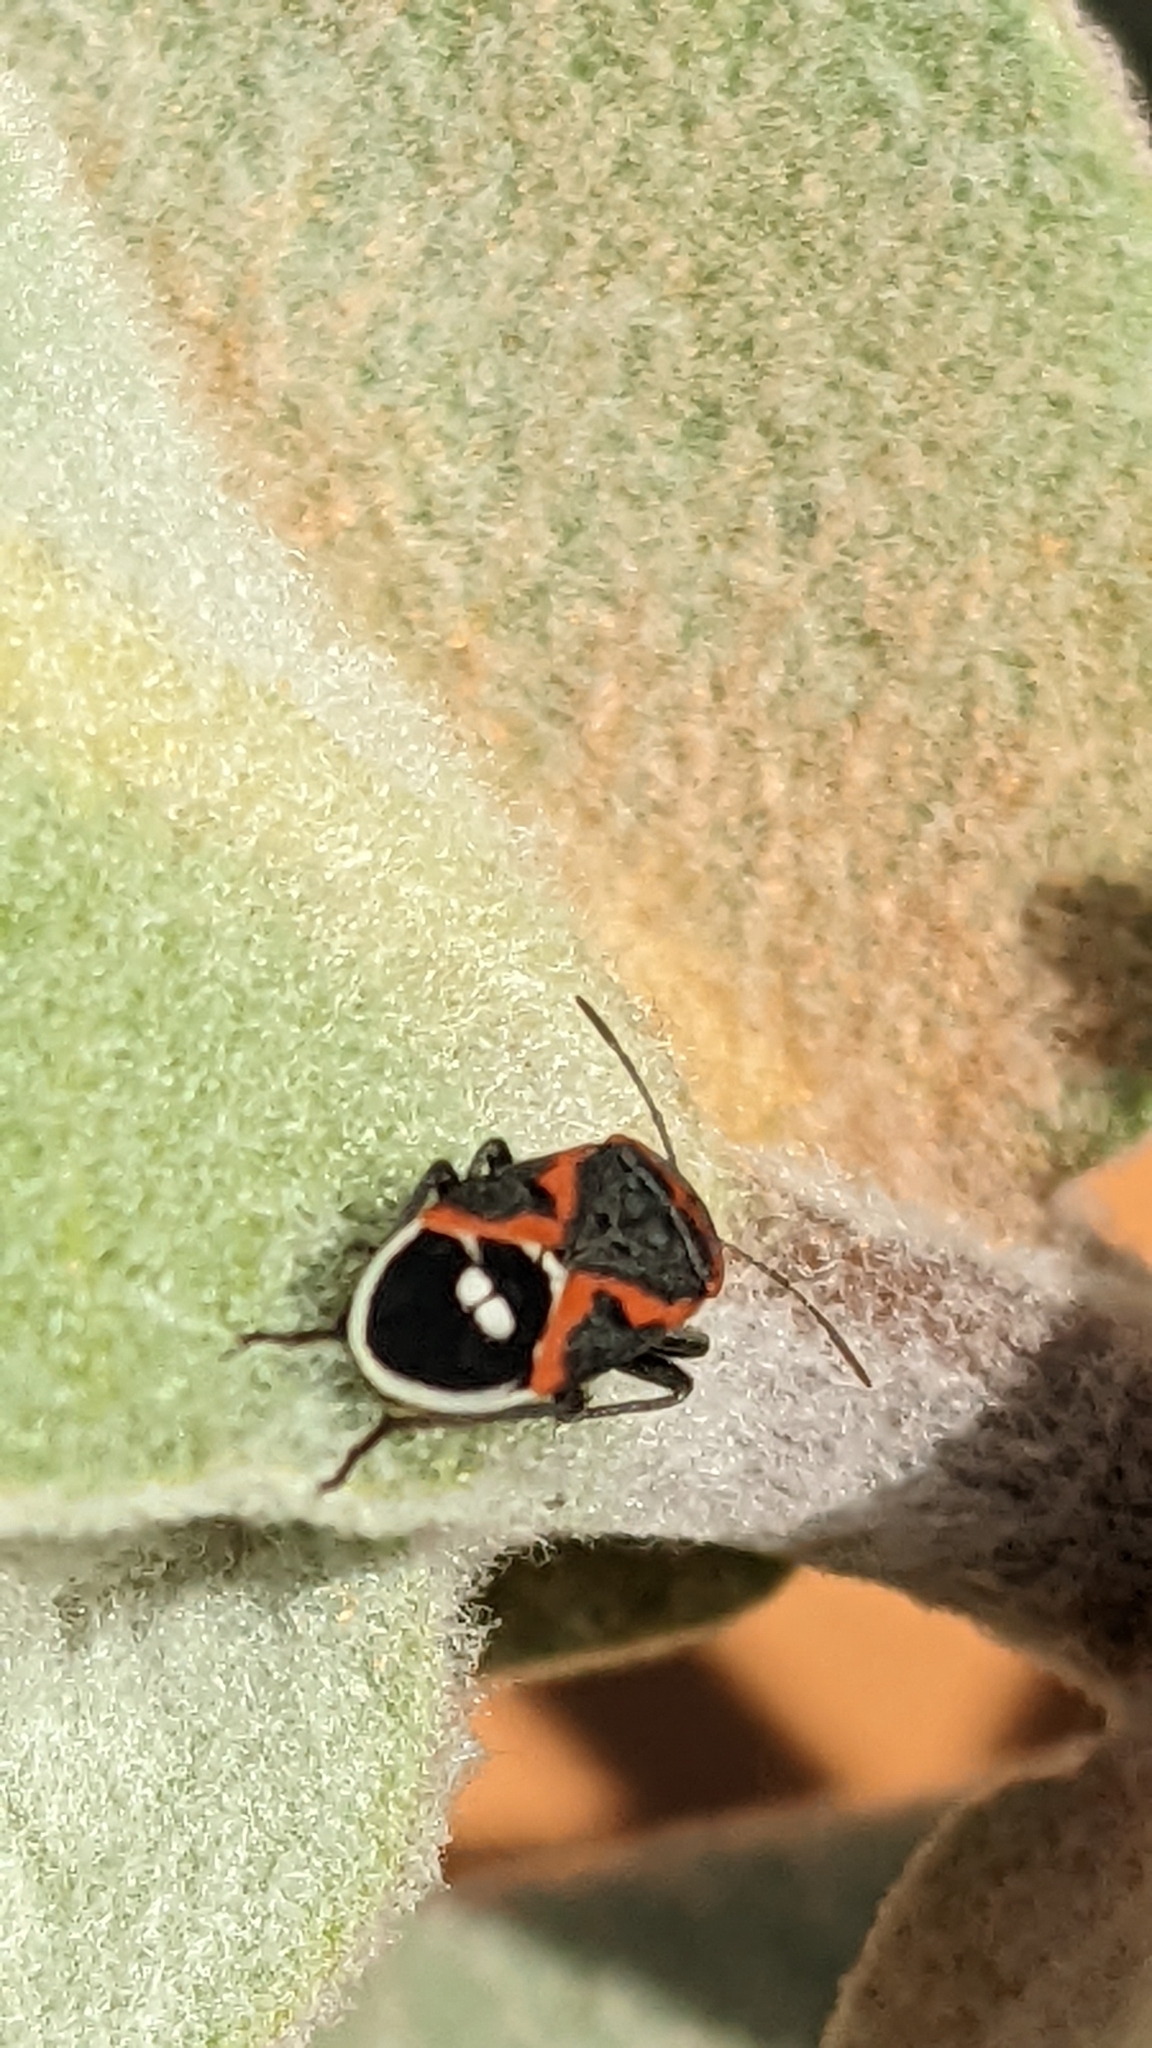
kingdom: Animalia
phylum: Arthropoda
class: Insecta
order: Hemiptera
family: Lygaeidae
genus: Lygaeus
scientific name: Lygaeus kalmii
